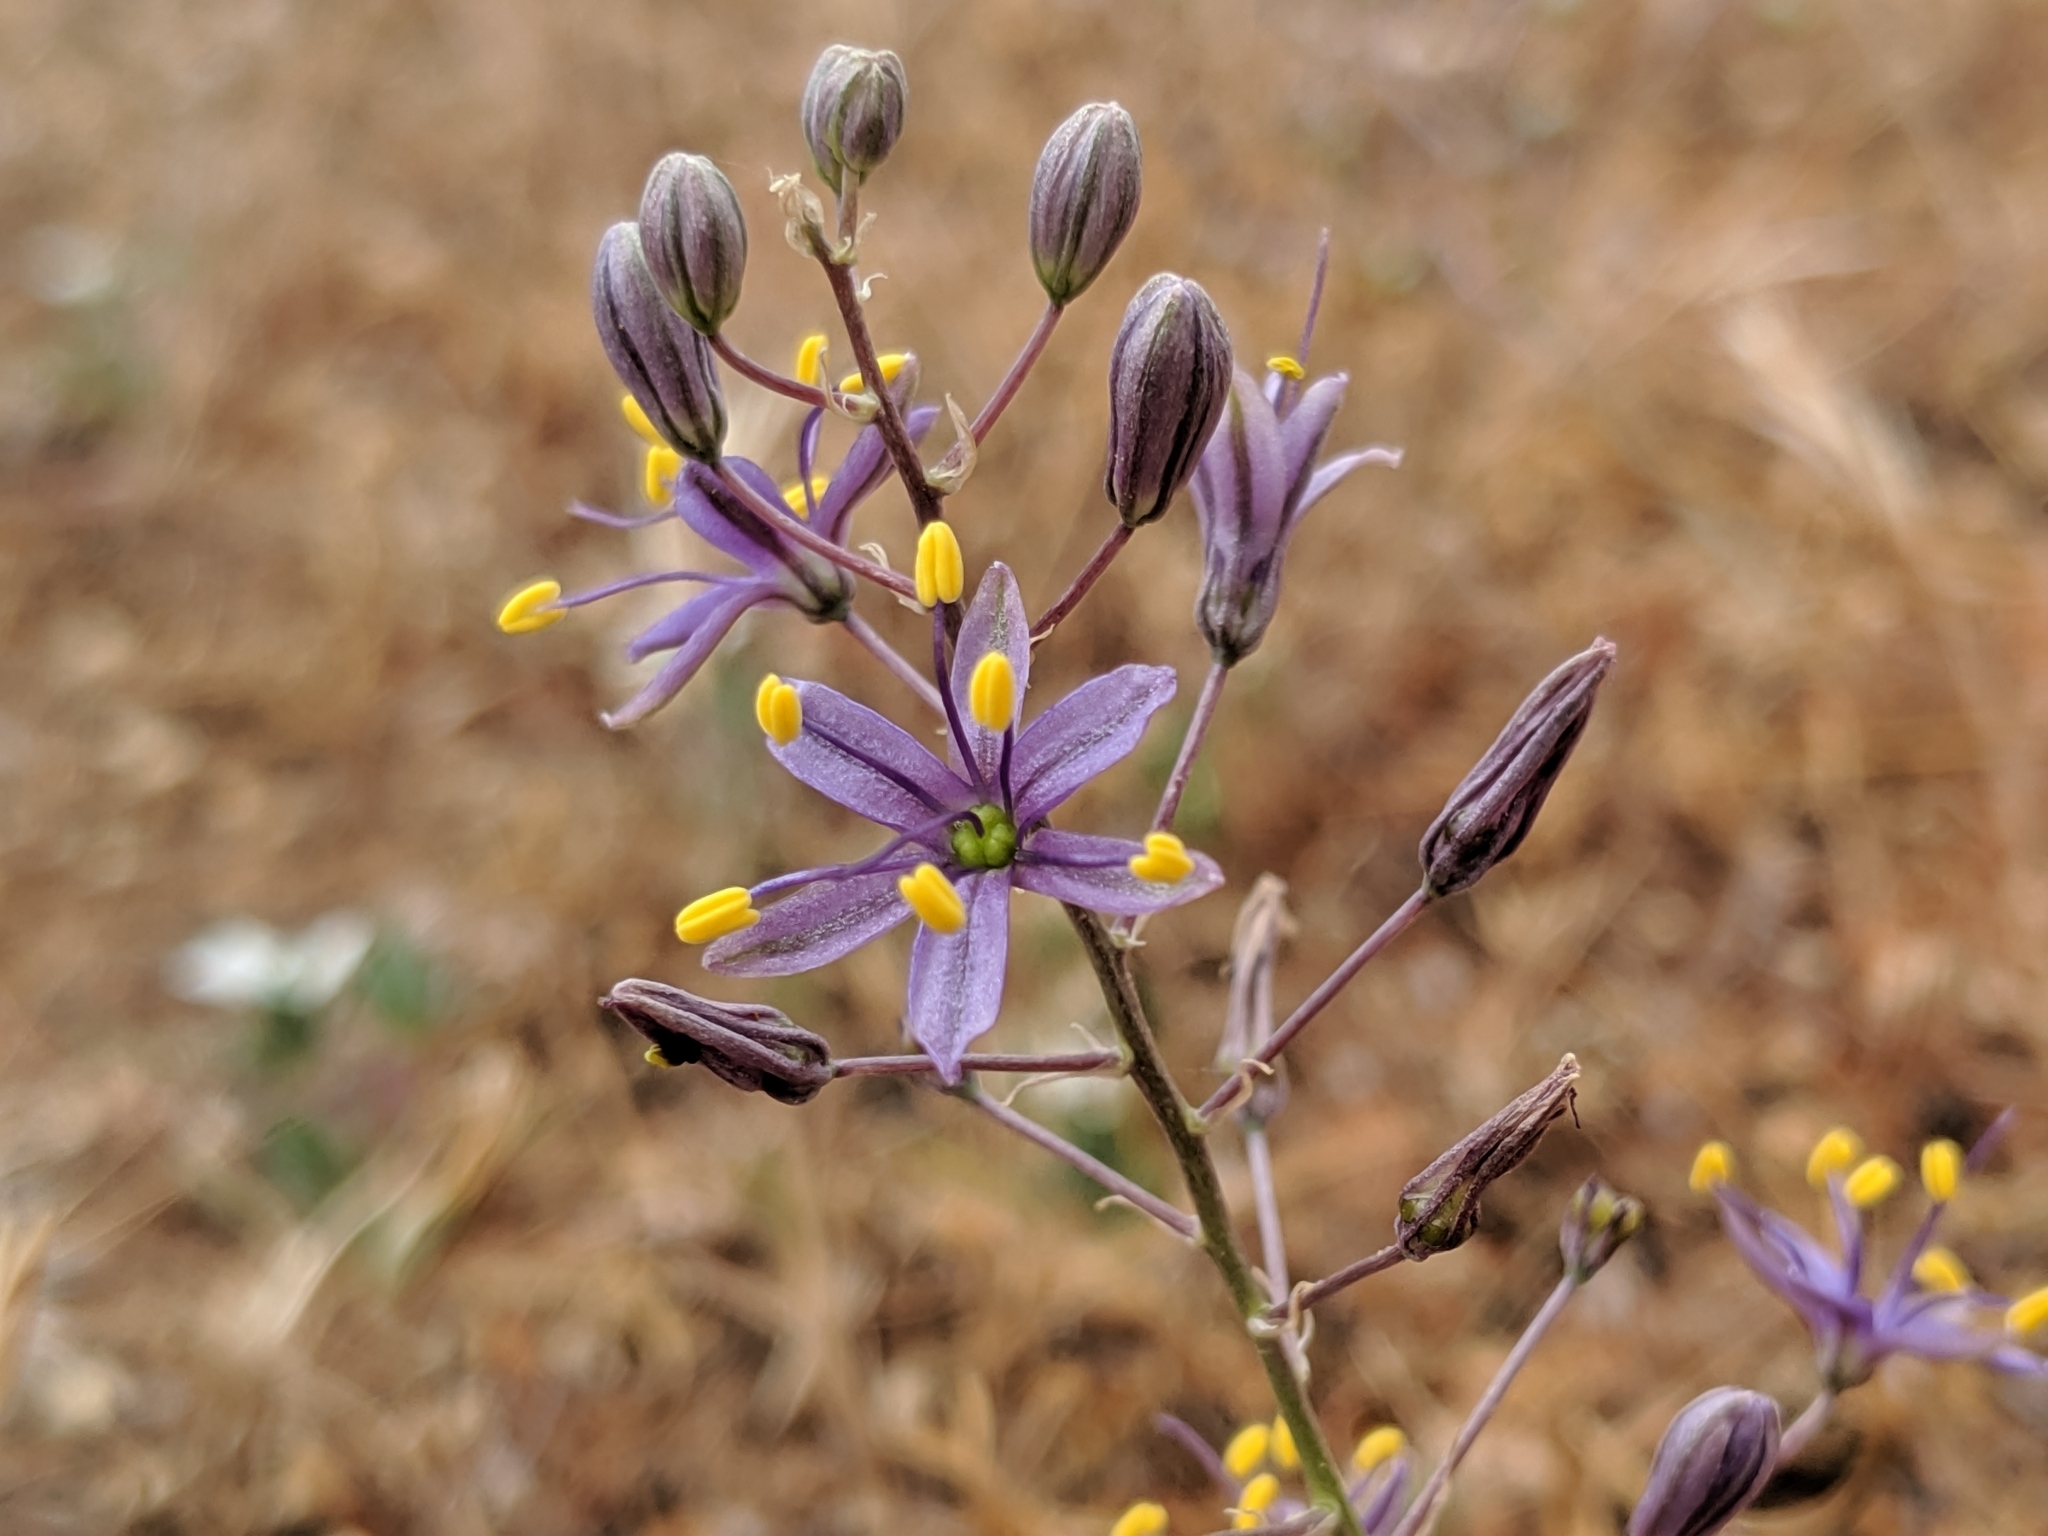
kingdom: Plantae
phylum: Tracheophyta
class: Liliopsida
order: Asparagales
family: Asparagaceae
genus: Hooveria
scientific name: Hooveria purpurea
